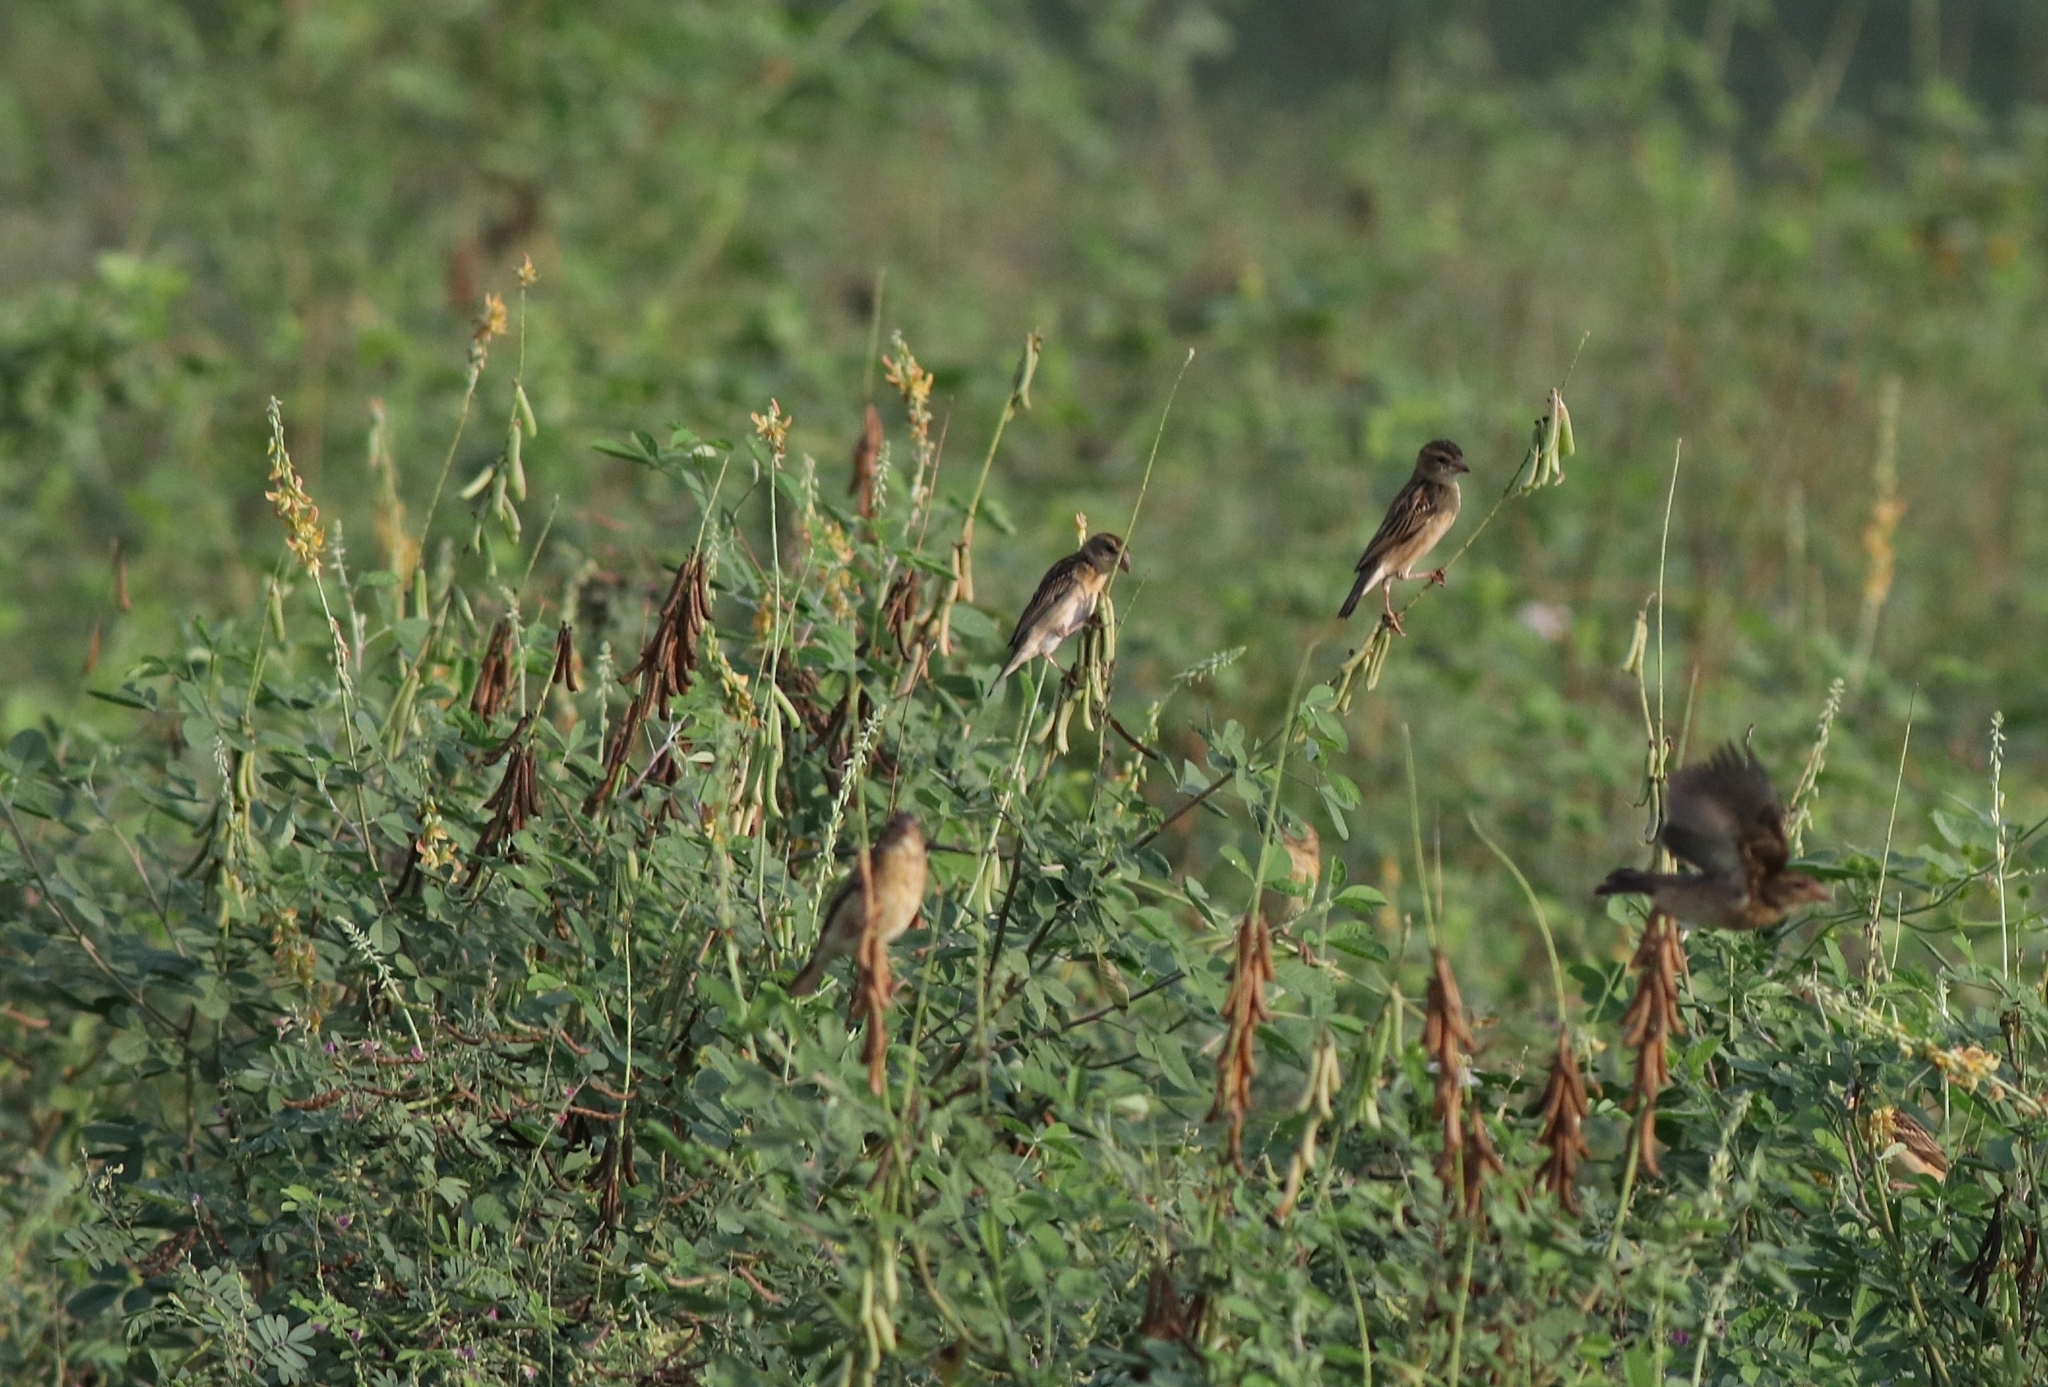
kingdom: Animalia
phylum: Chordata
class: Aves
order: Passeriformes
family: Ploceidae
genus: Ploceus
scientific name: Ploceus philippinus
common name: Baya weaver
